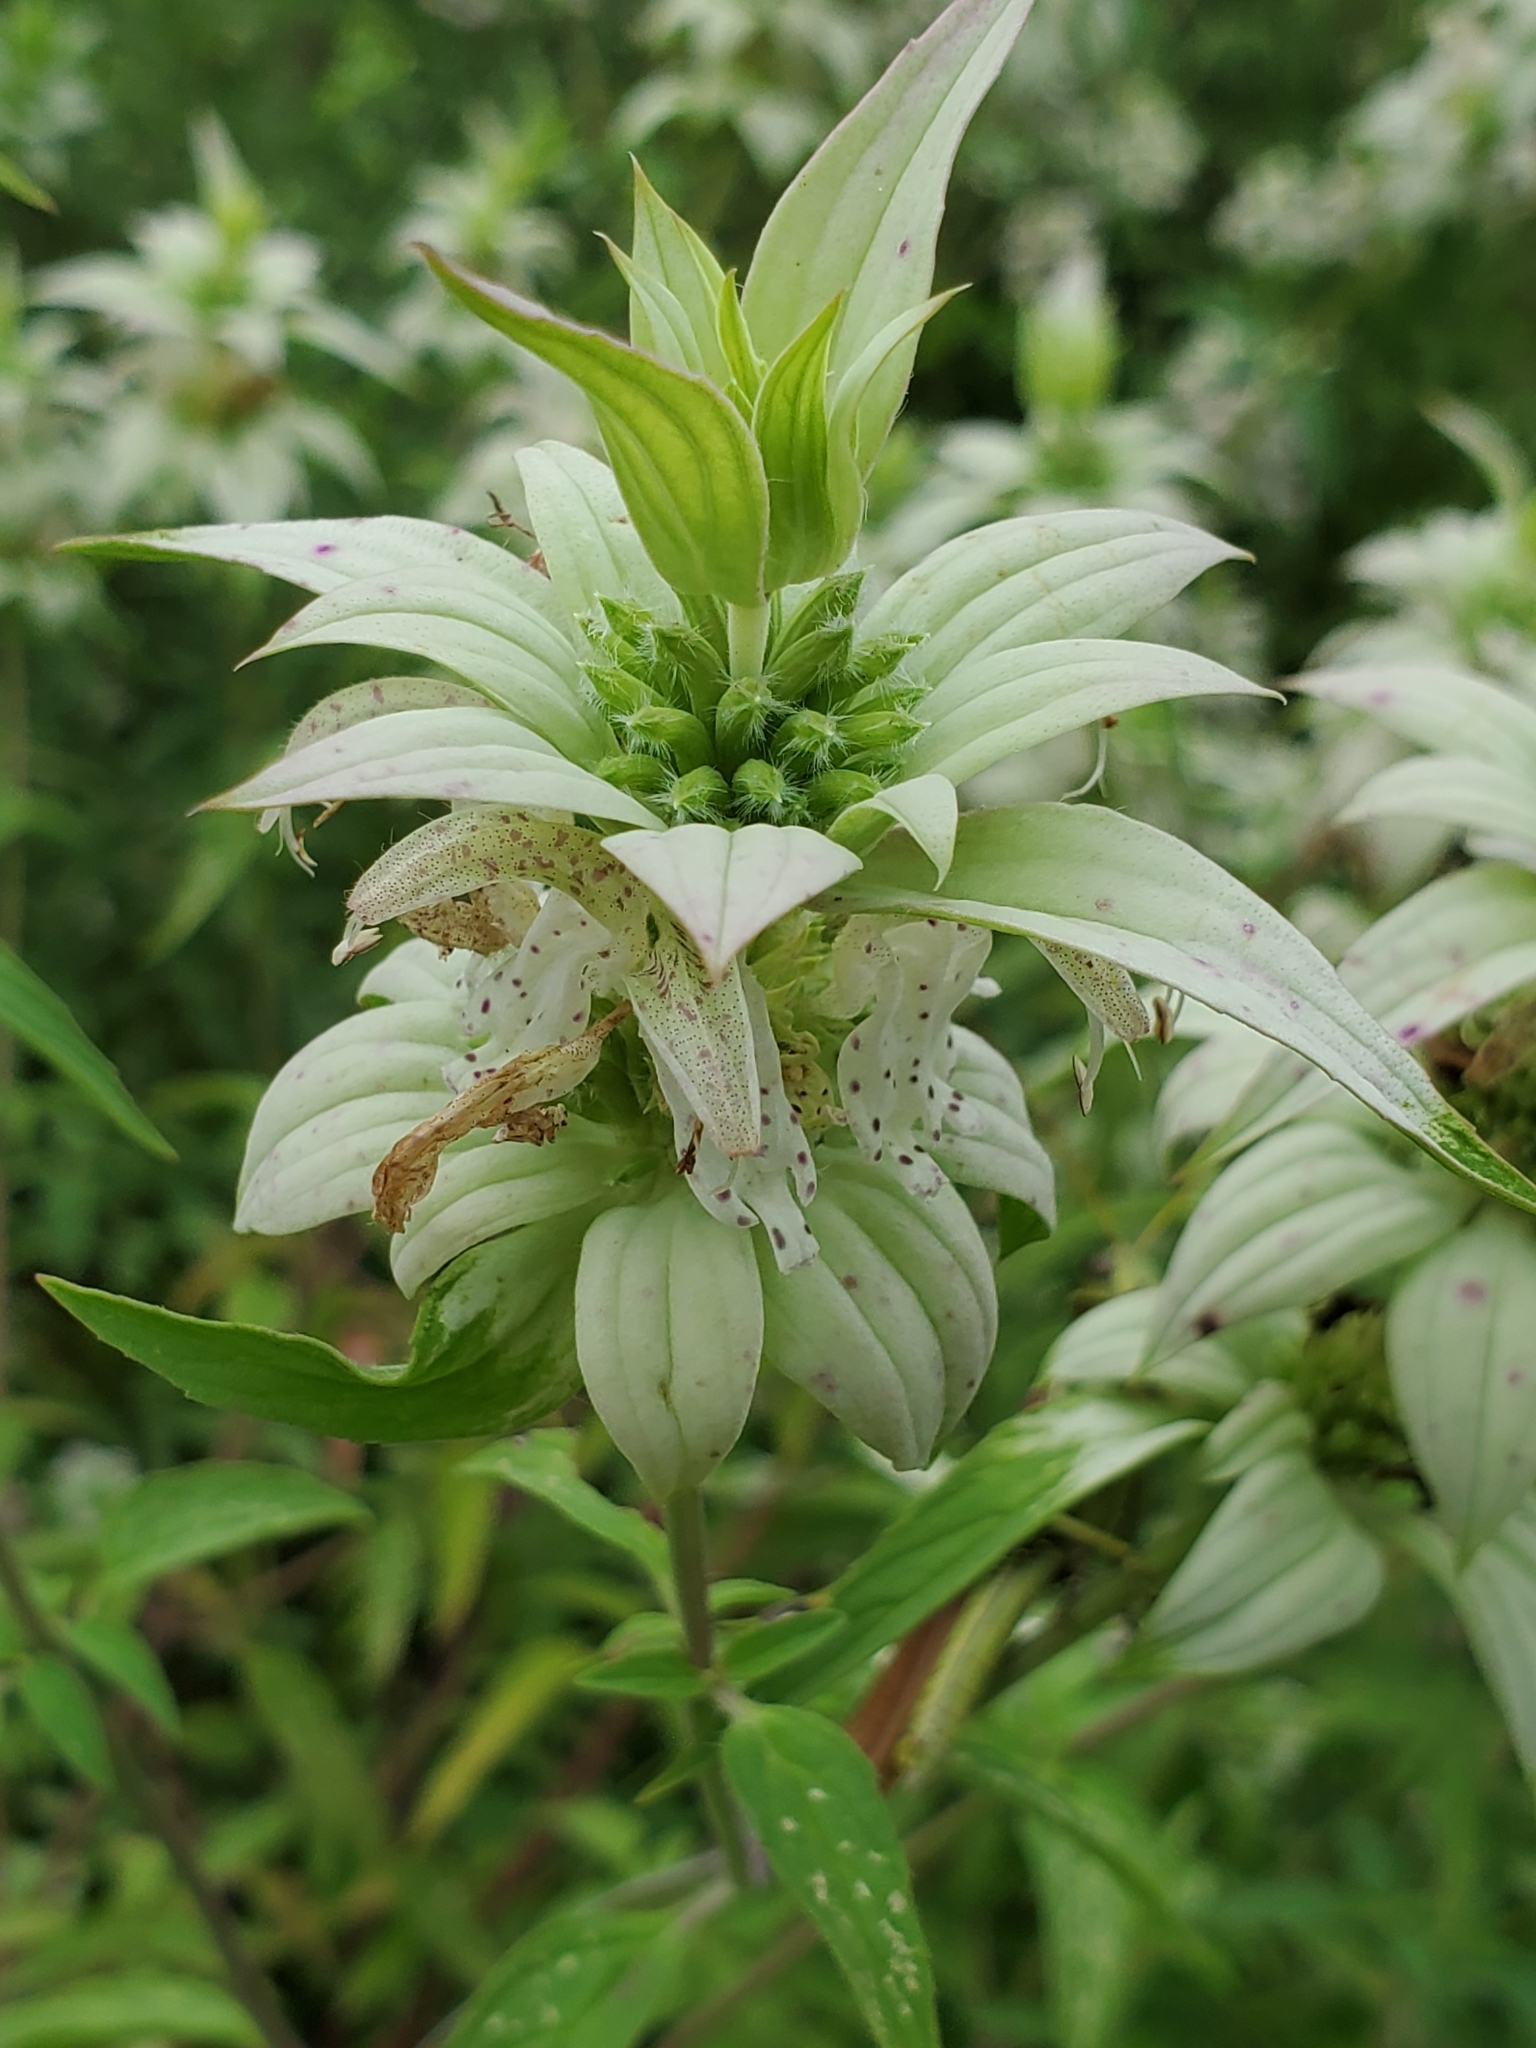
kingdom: Plantae
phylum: Tracheophyta
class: Magnoliopsida
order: Lamiales
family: Lamiaceae
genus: Monarda
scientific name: Monarda punctata
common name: Dotted monarda
